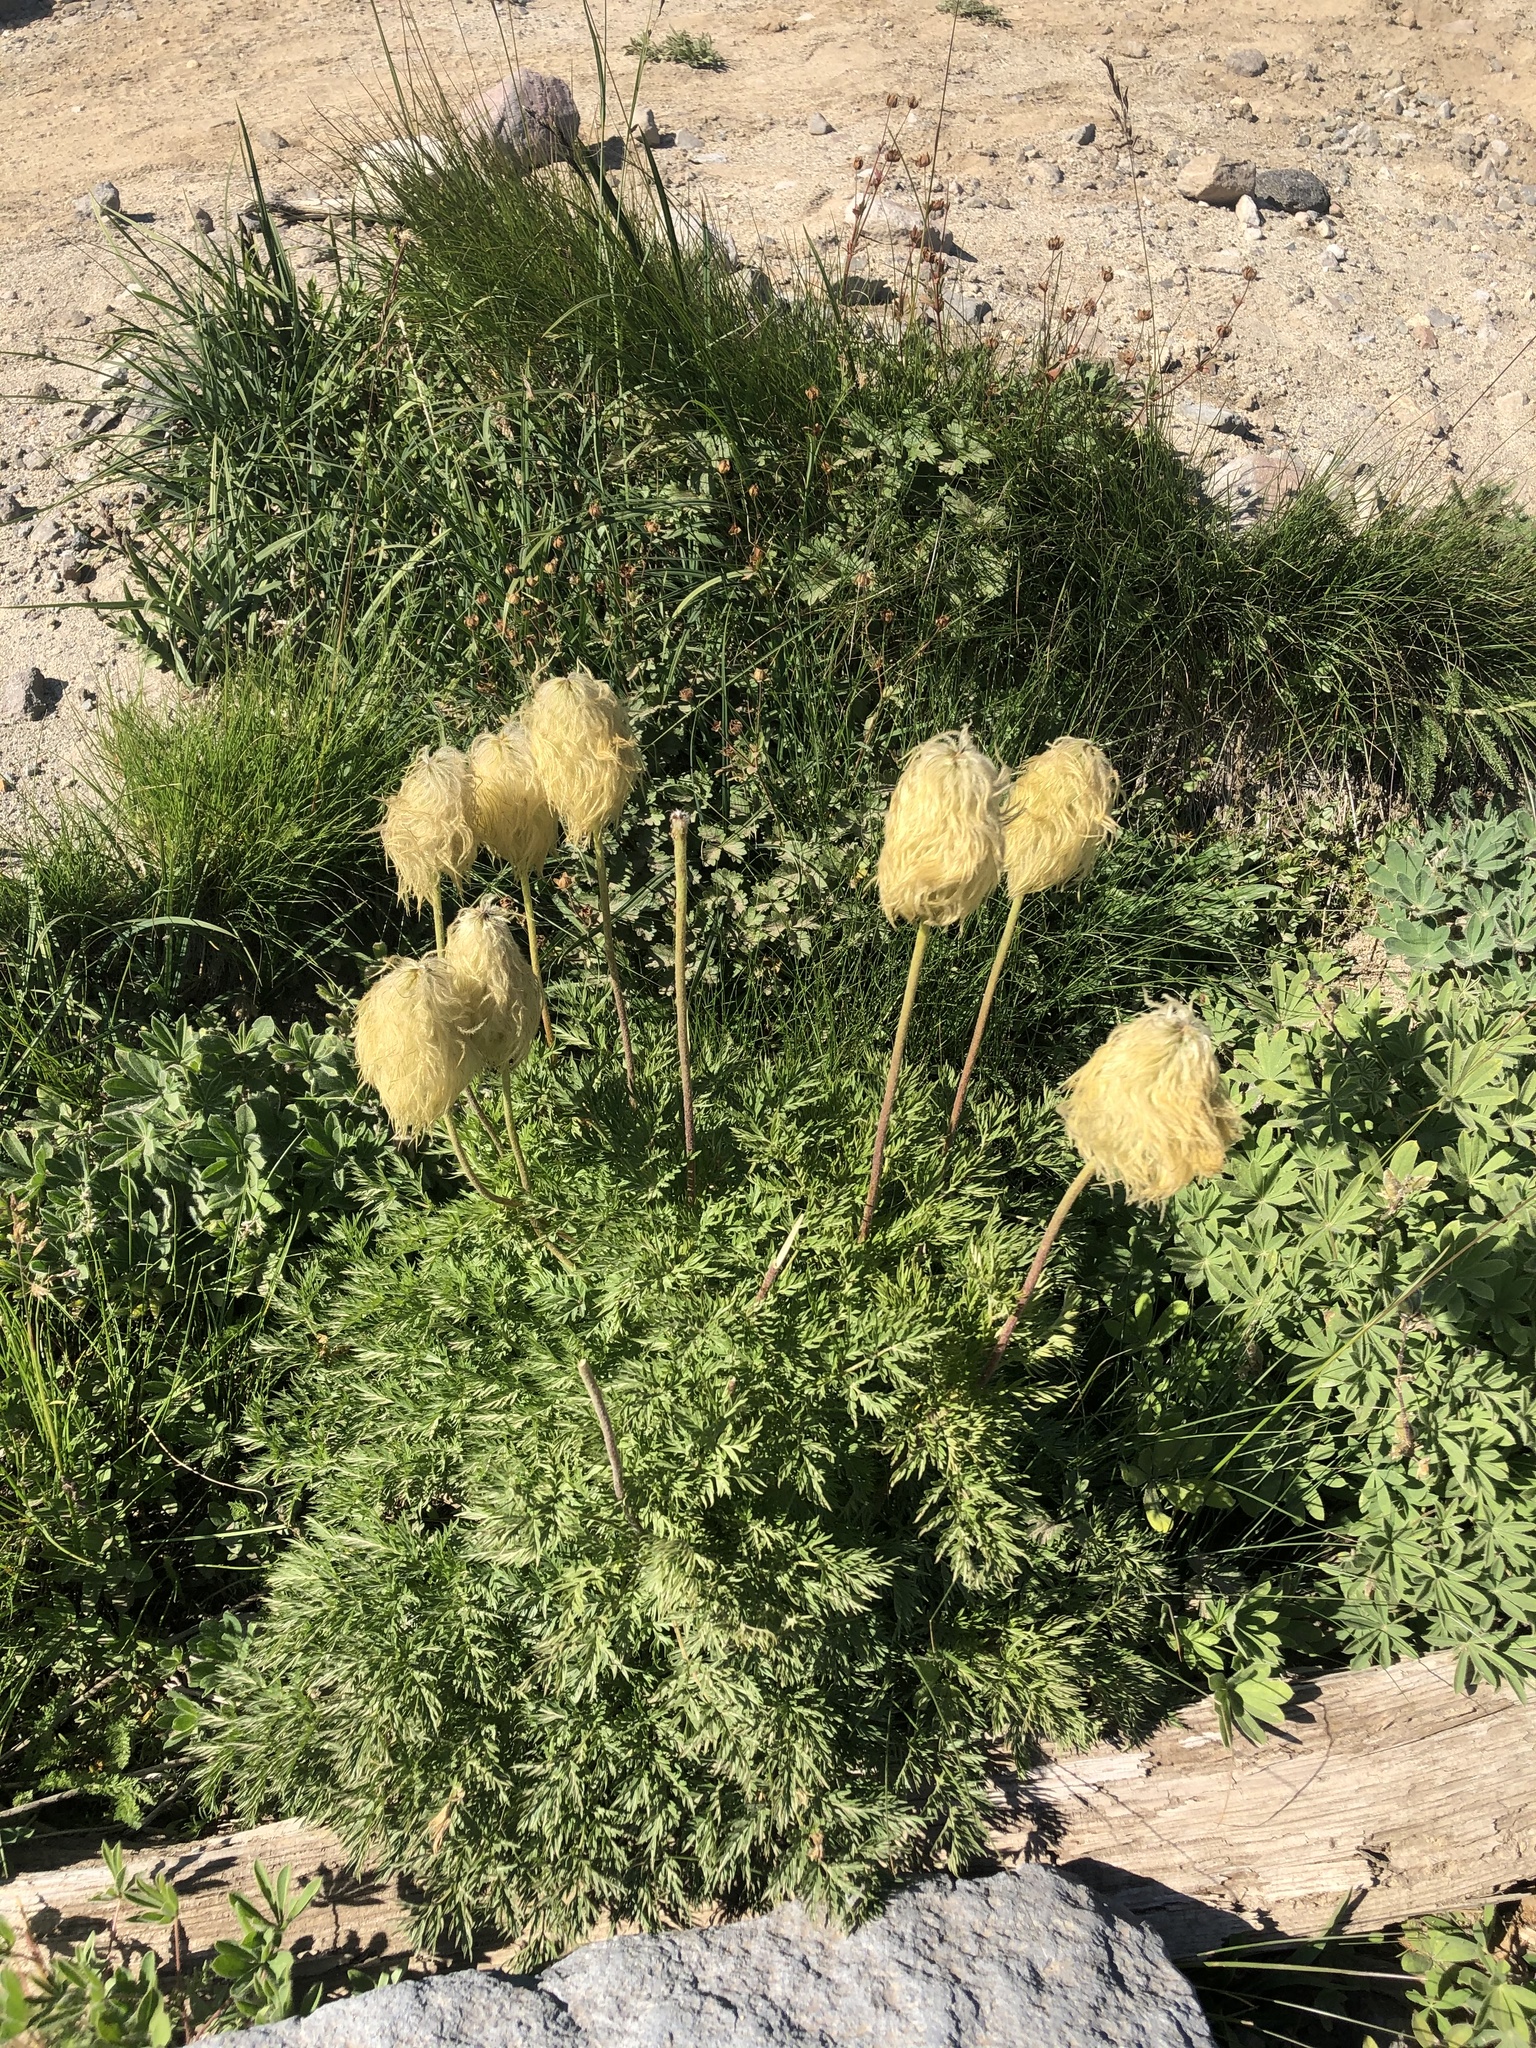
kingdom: Plantae
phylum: Tracheophyta
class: Magnoliopsida
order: Ranunculales
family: Ranunculaceae
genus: Pulsatilla
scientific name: Pulsatilla occidentalis
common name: Mountain pasqueflower
